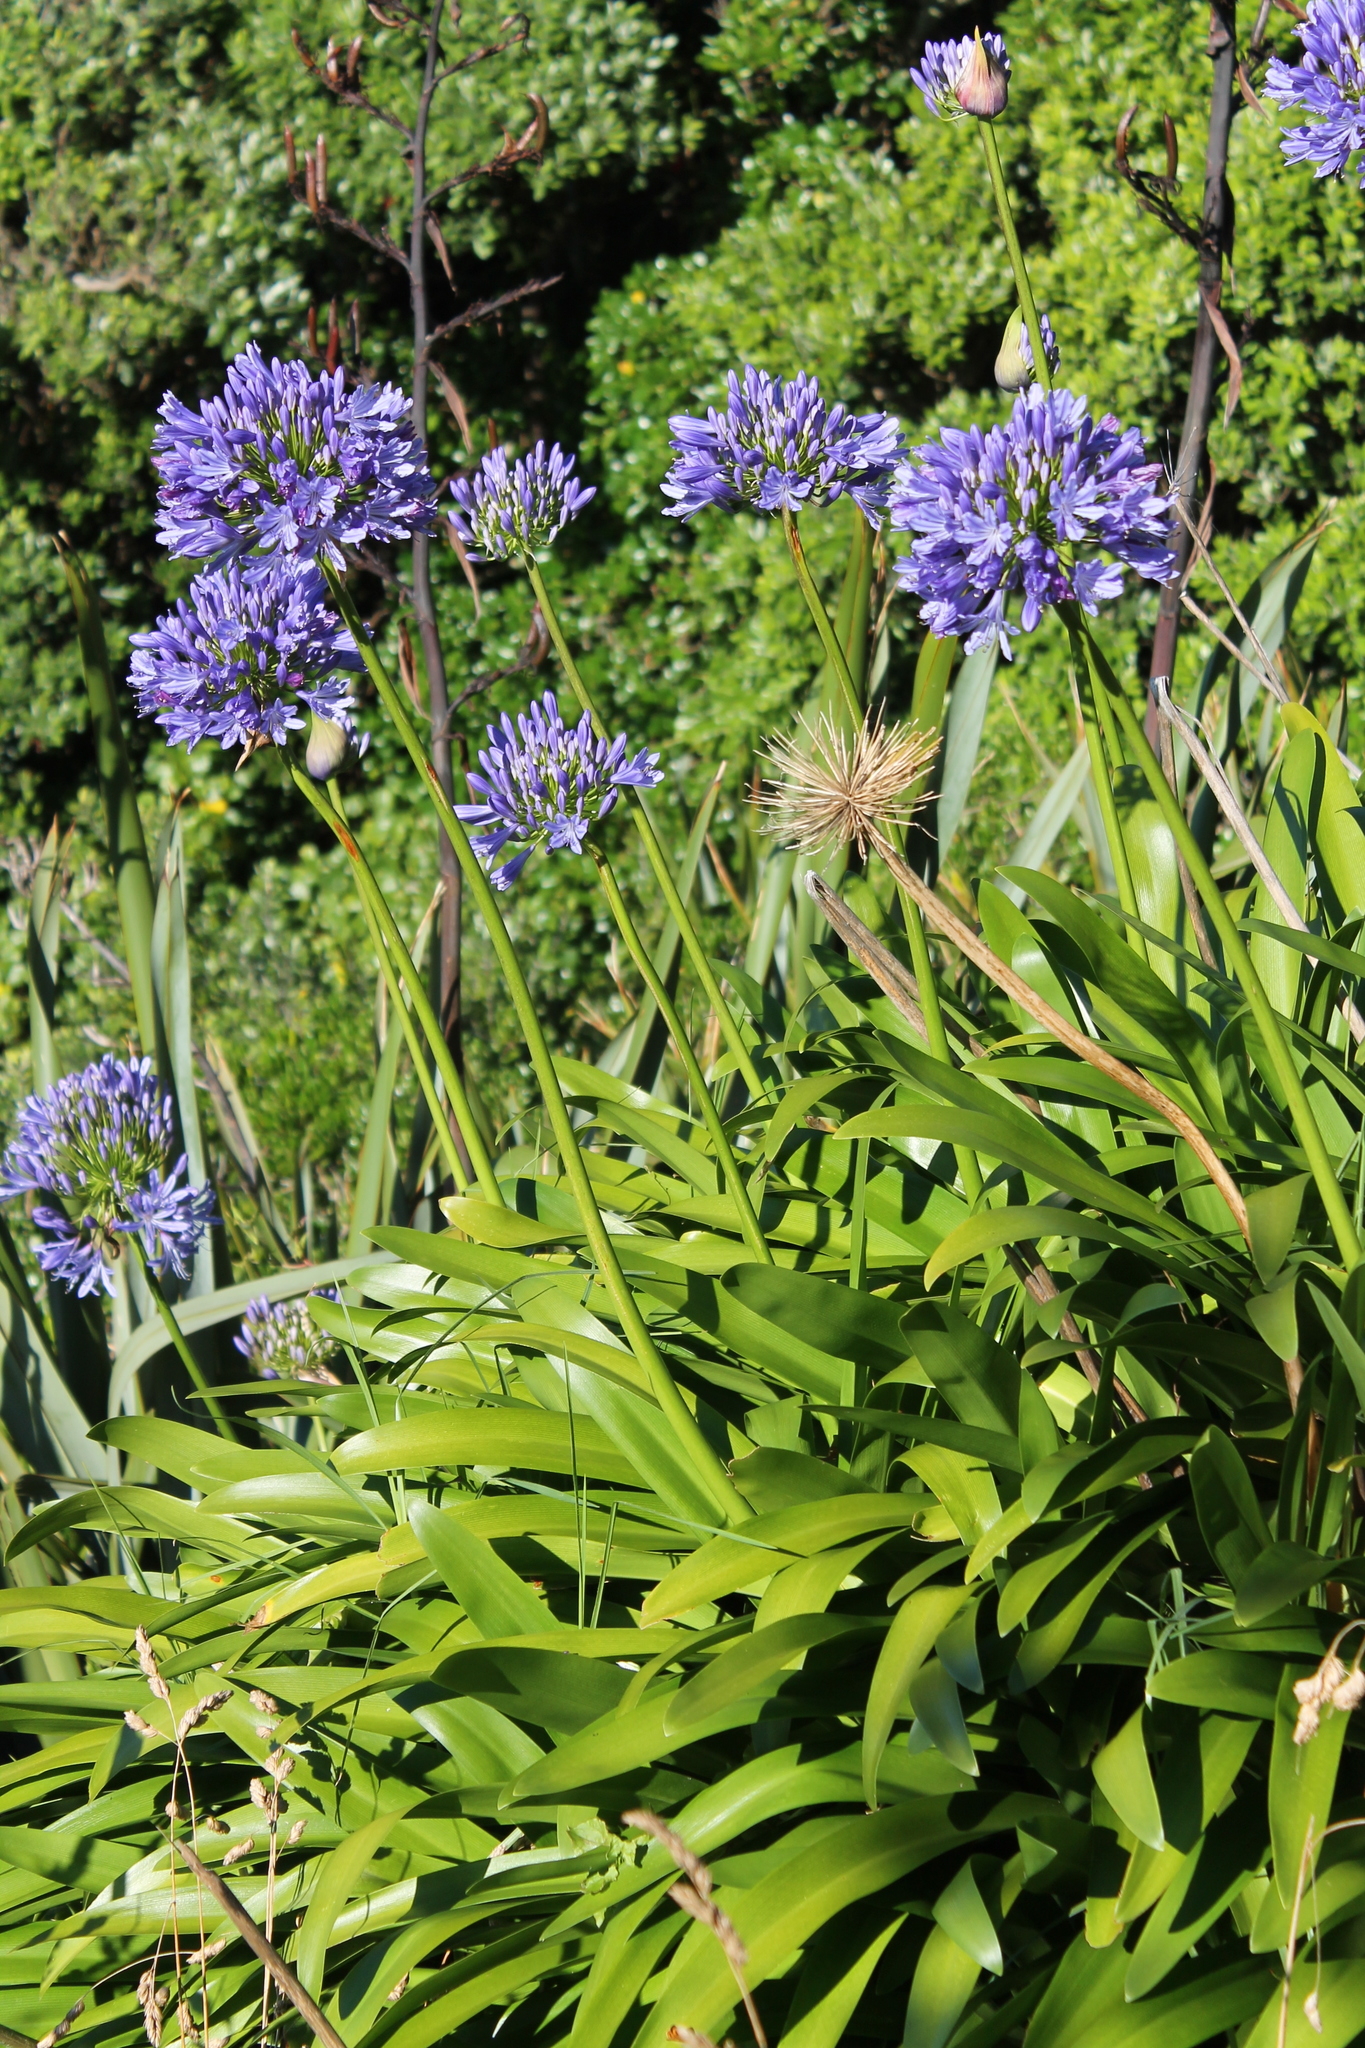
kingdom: Plantae
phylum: Tracheophyta
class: Liliopsida
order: Asparagales
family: Amaryllidaceae
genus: Agapanthus
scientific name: Agapanthus praecox
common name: African-lily
